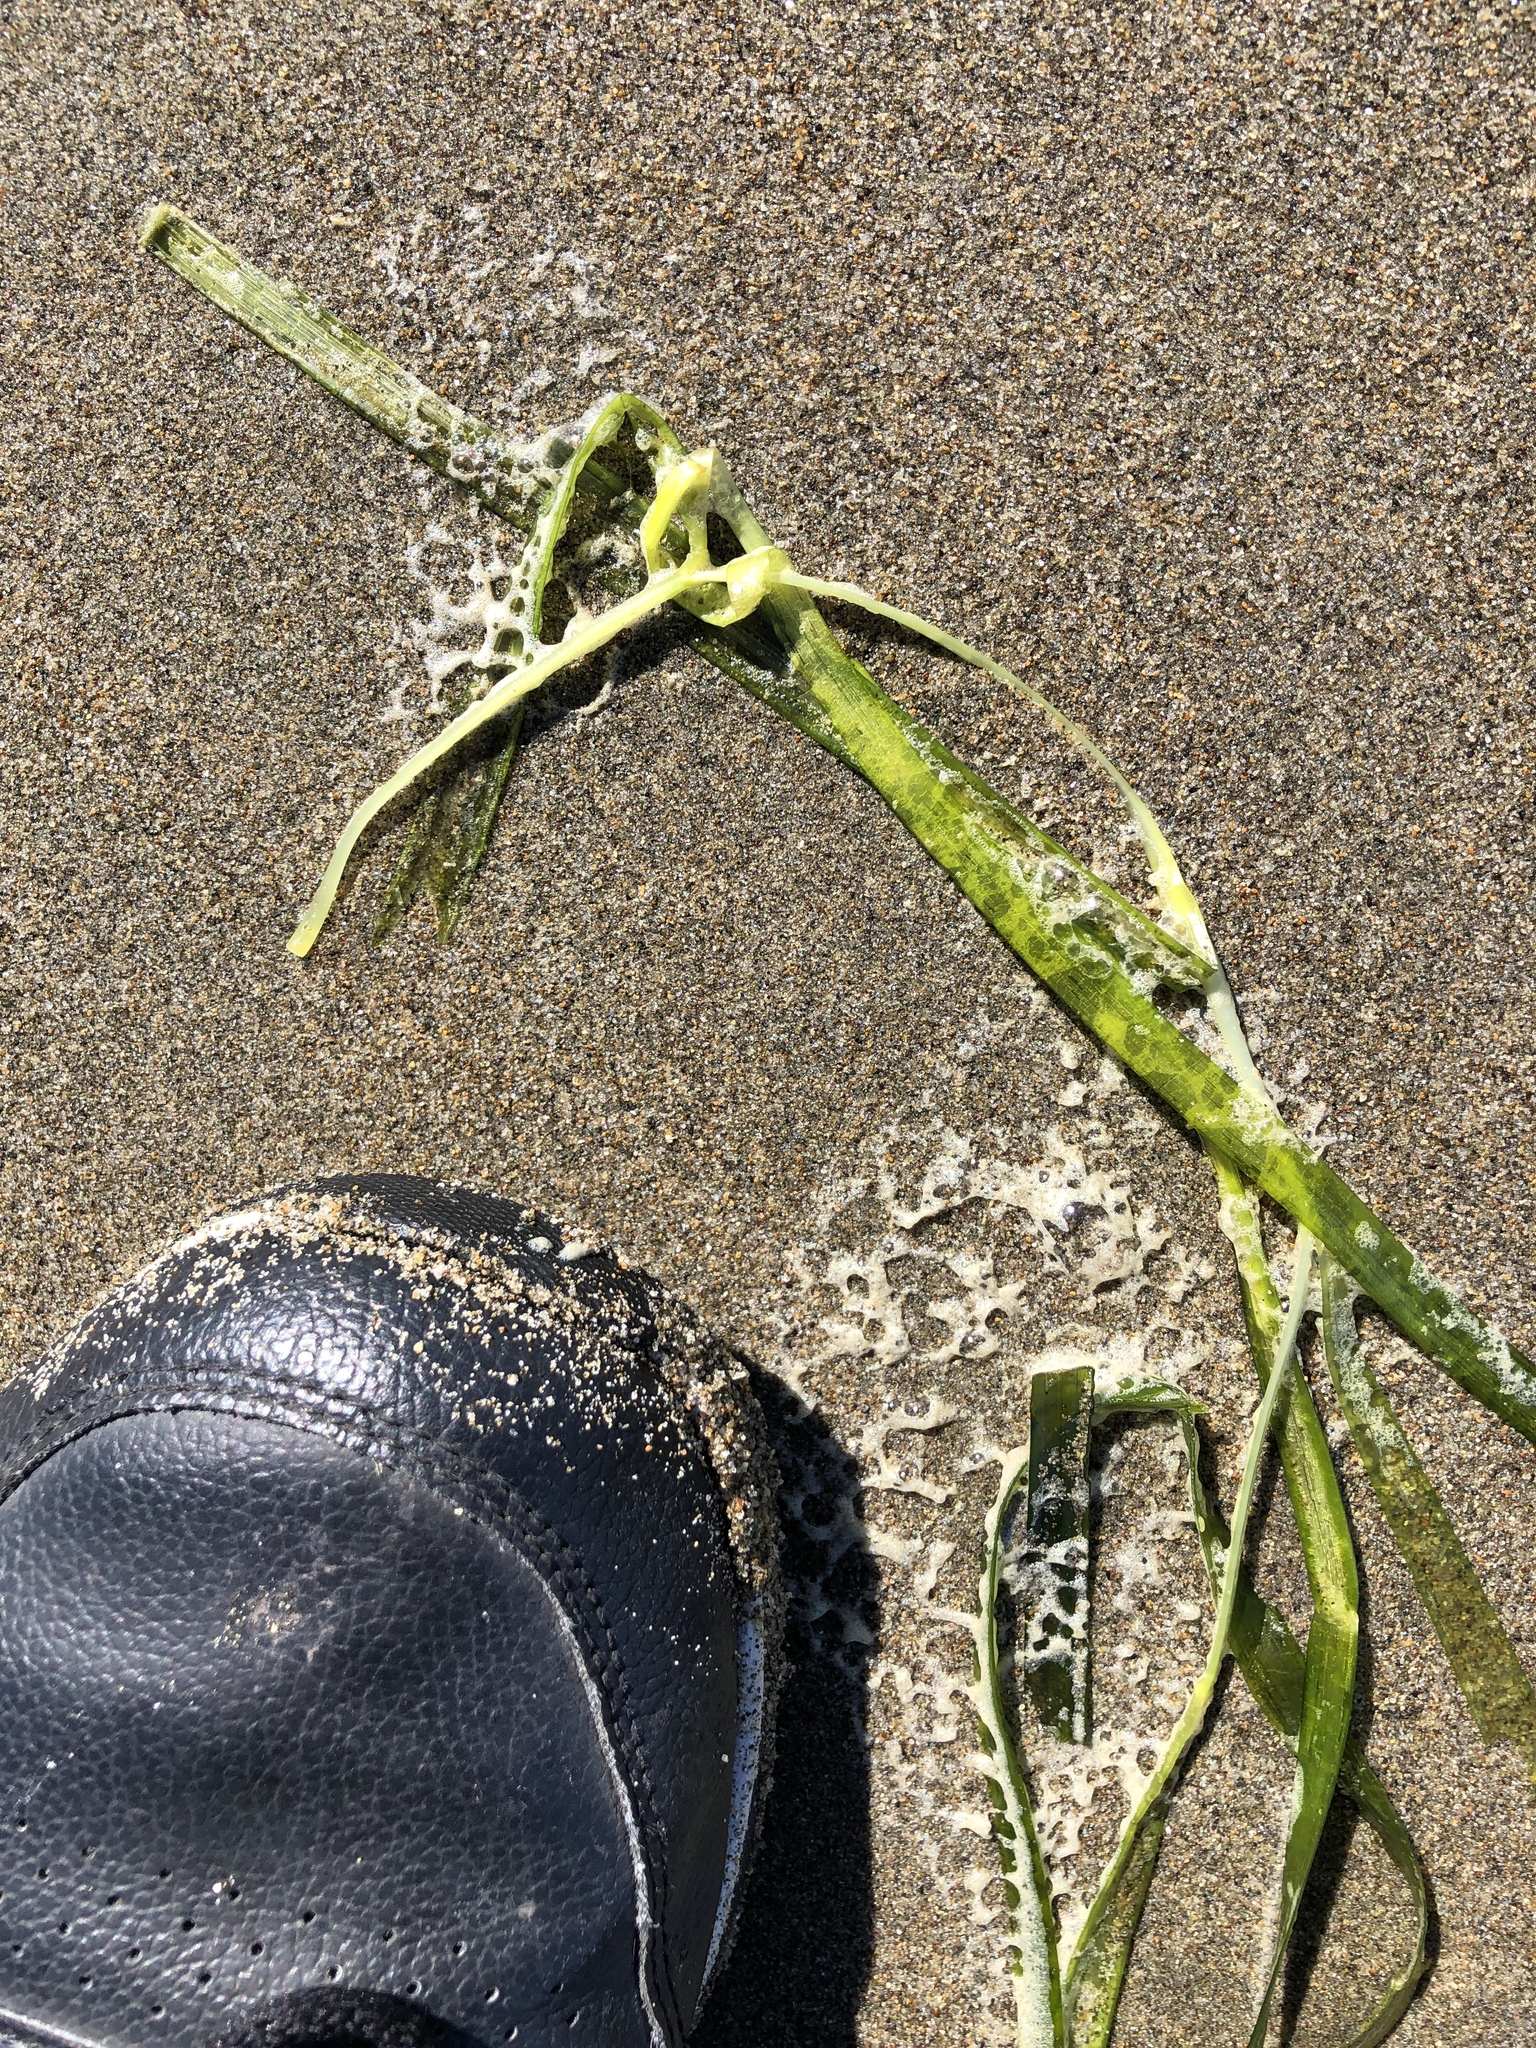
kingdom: Plantae
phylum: Tracheophyta
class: Liliopsida
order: Alismatales
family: Zosteraceae
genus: Zostera
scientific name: Zostera marina
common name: Eelgrass
